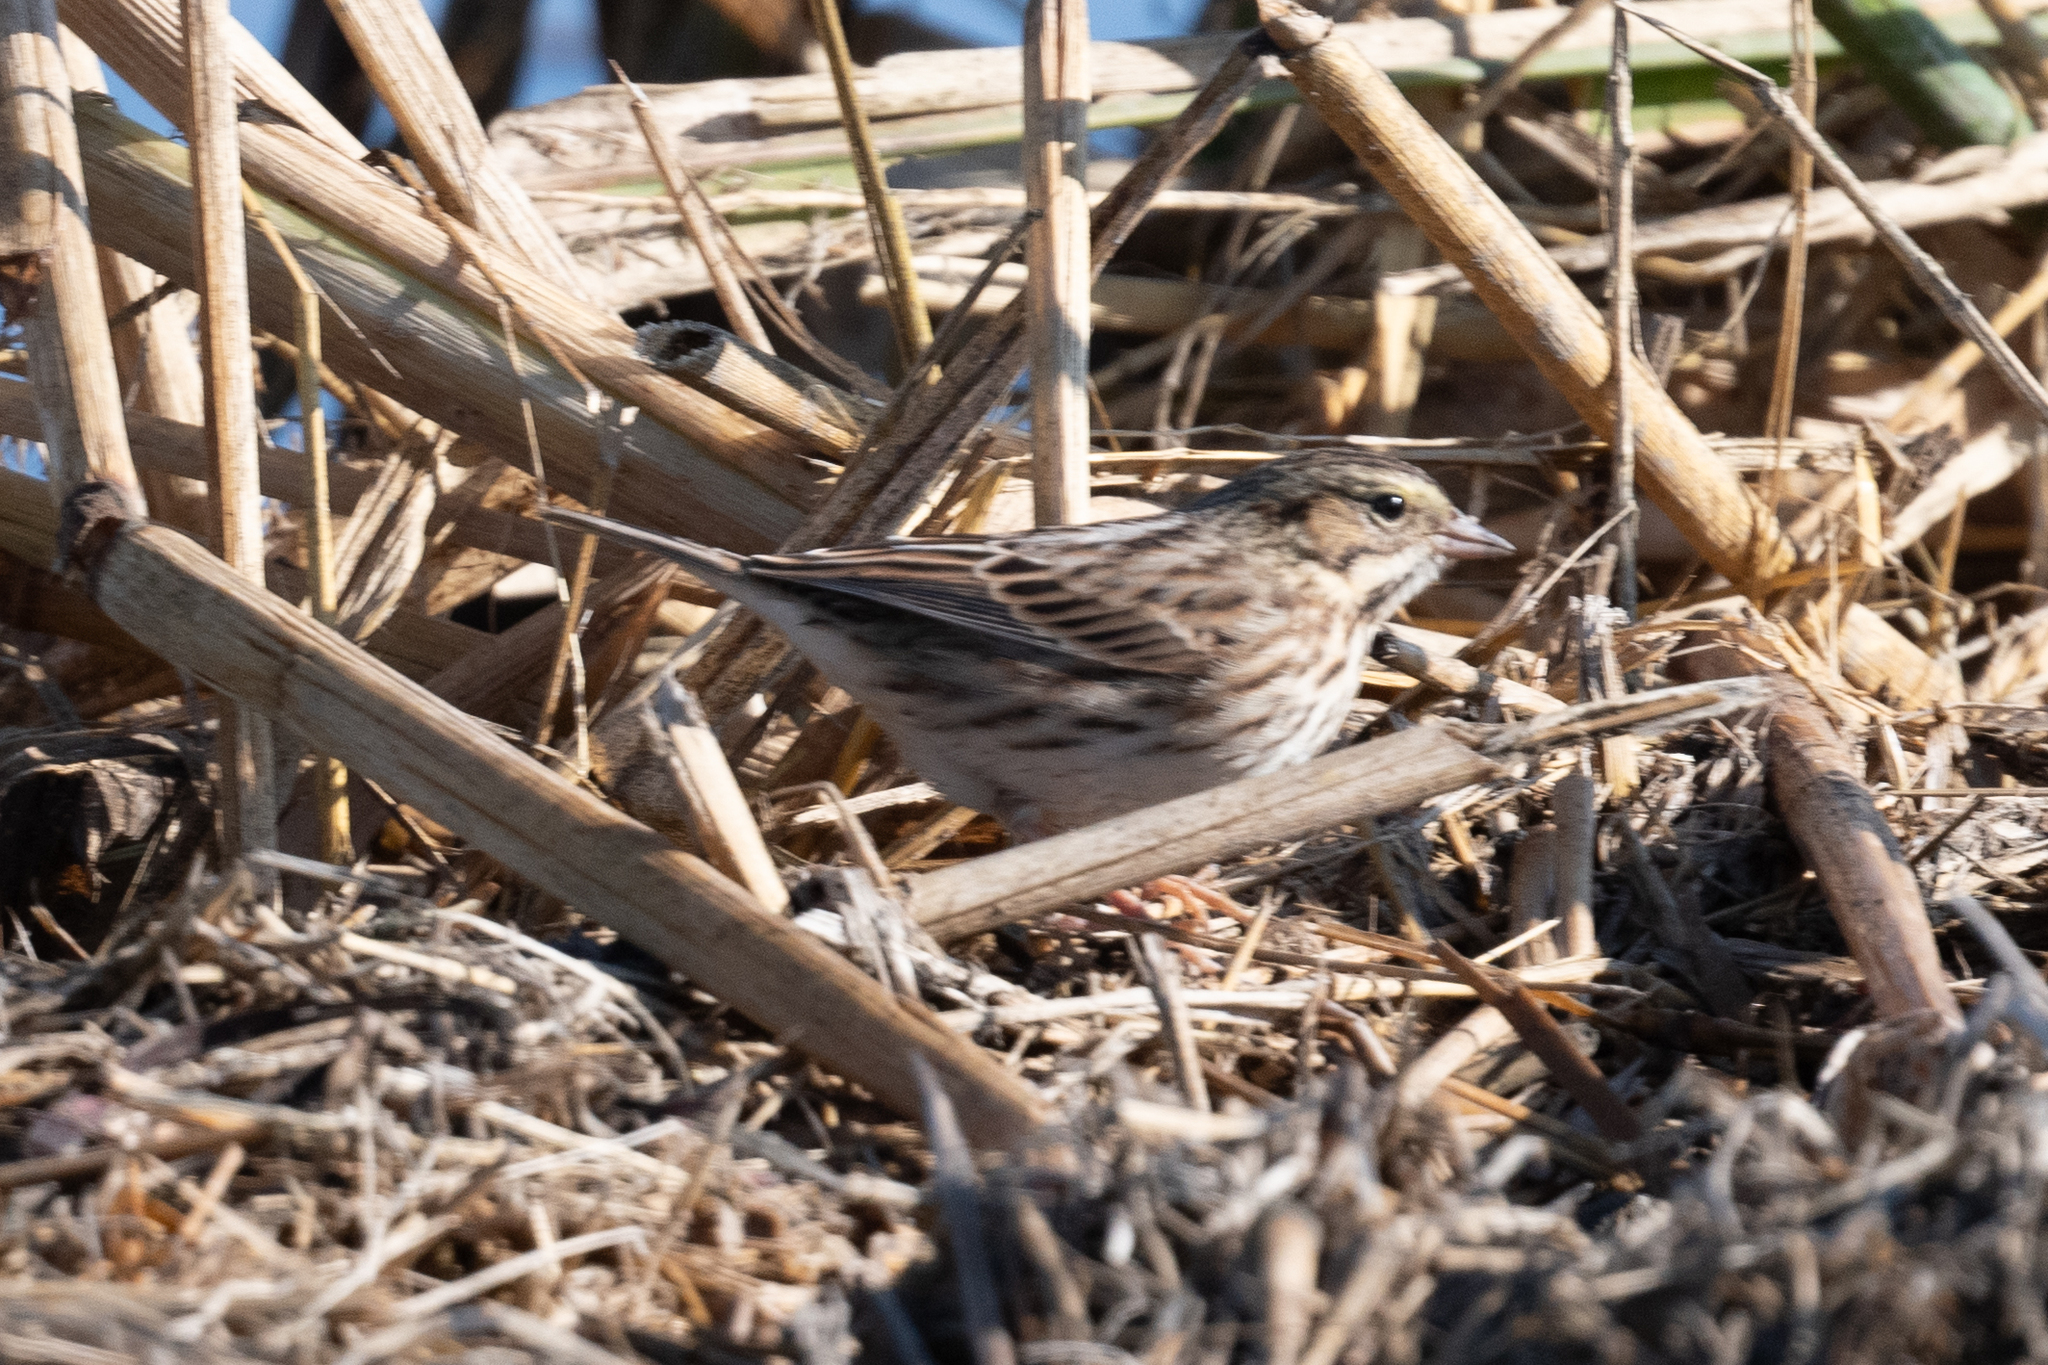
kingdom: Animalia
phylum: Chordata
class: Aves
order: Passeriformes
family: Passerellidae
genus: Passerculus
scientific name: Passerculus sandwichensis
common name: Savannah sparrow
